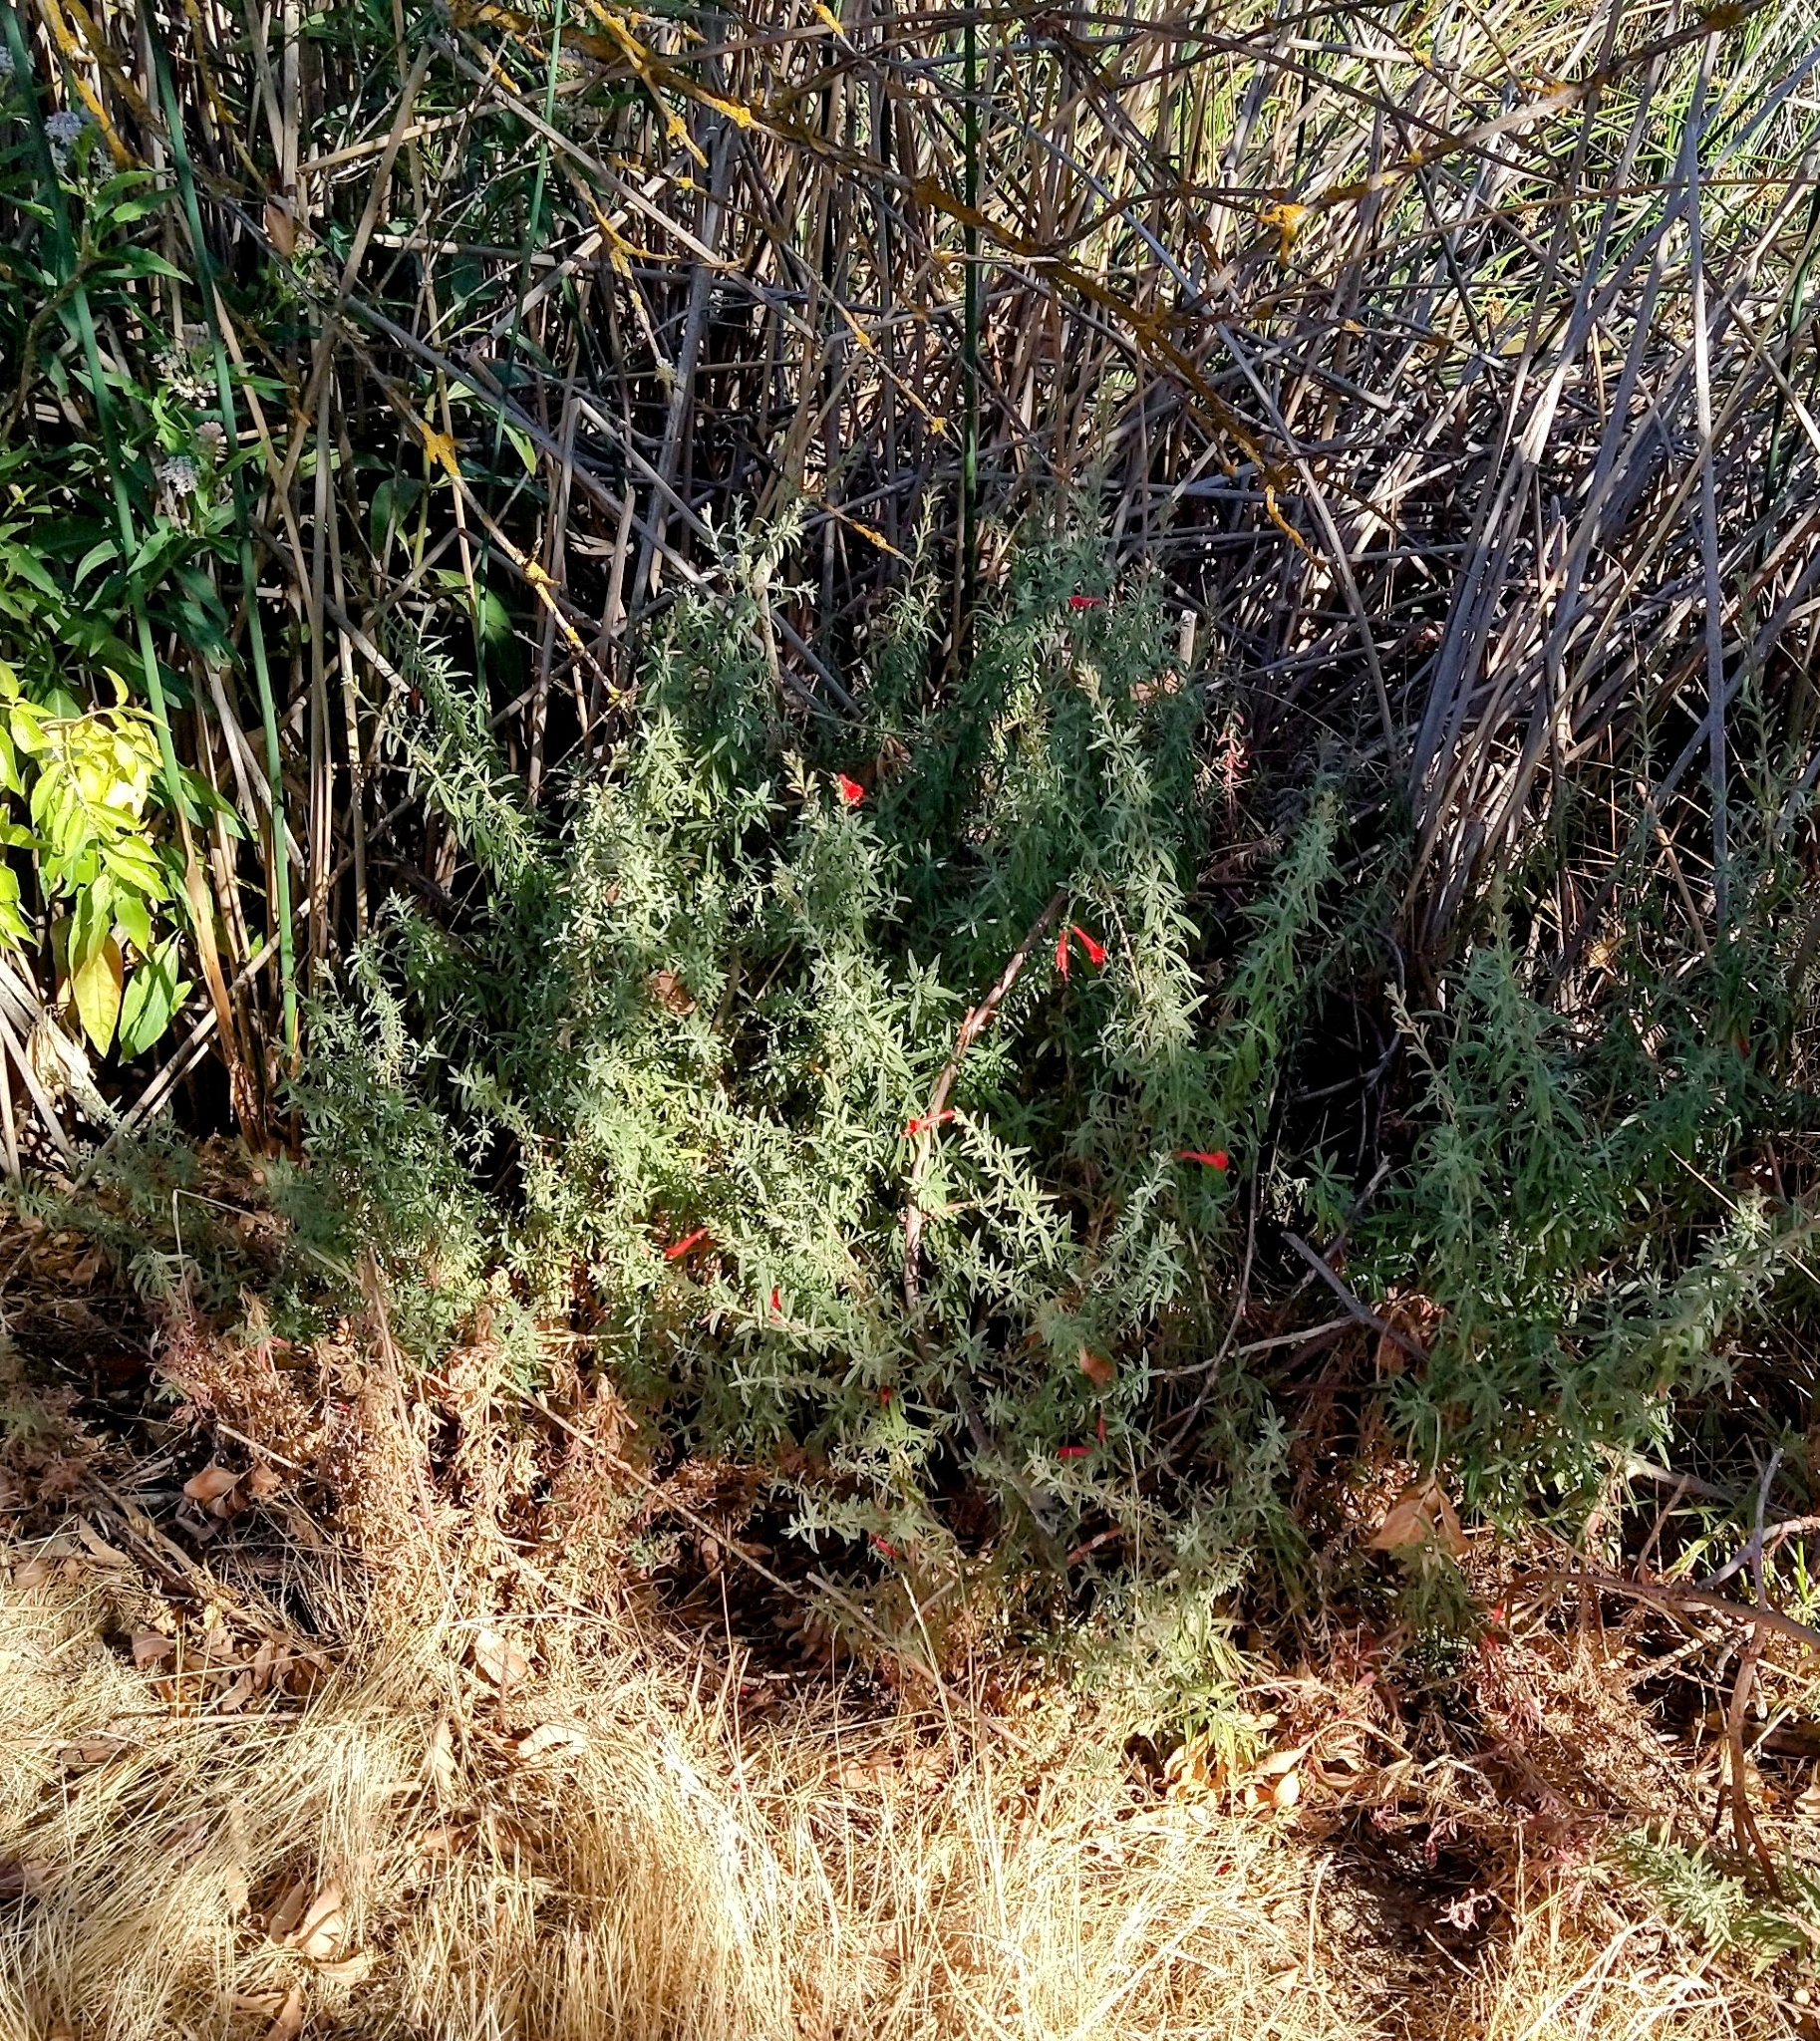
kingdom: Plantae
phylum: Tracheophyta
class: Magnoliopsida
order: Myrtales
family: Onagraceae
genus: Epilobium
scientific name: Epilobium canum
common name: California-fuchsia
